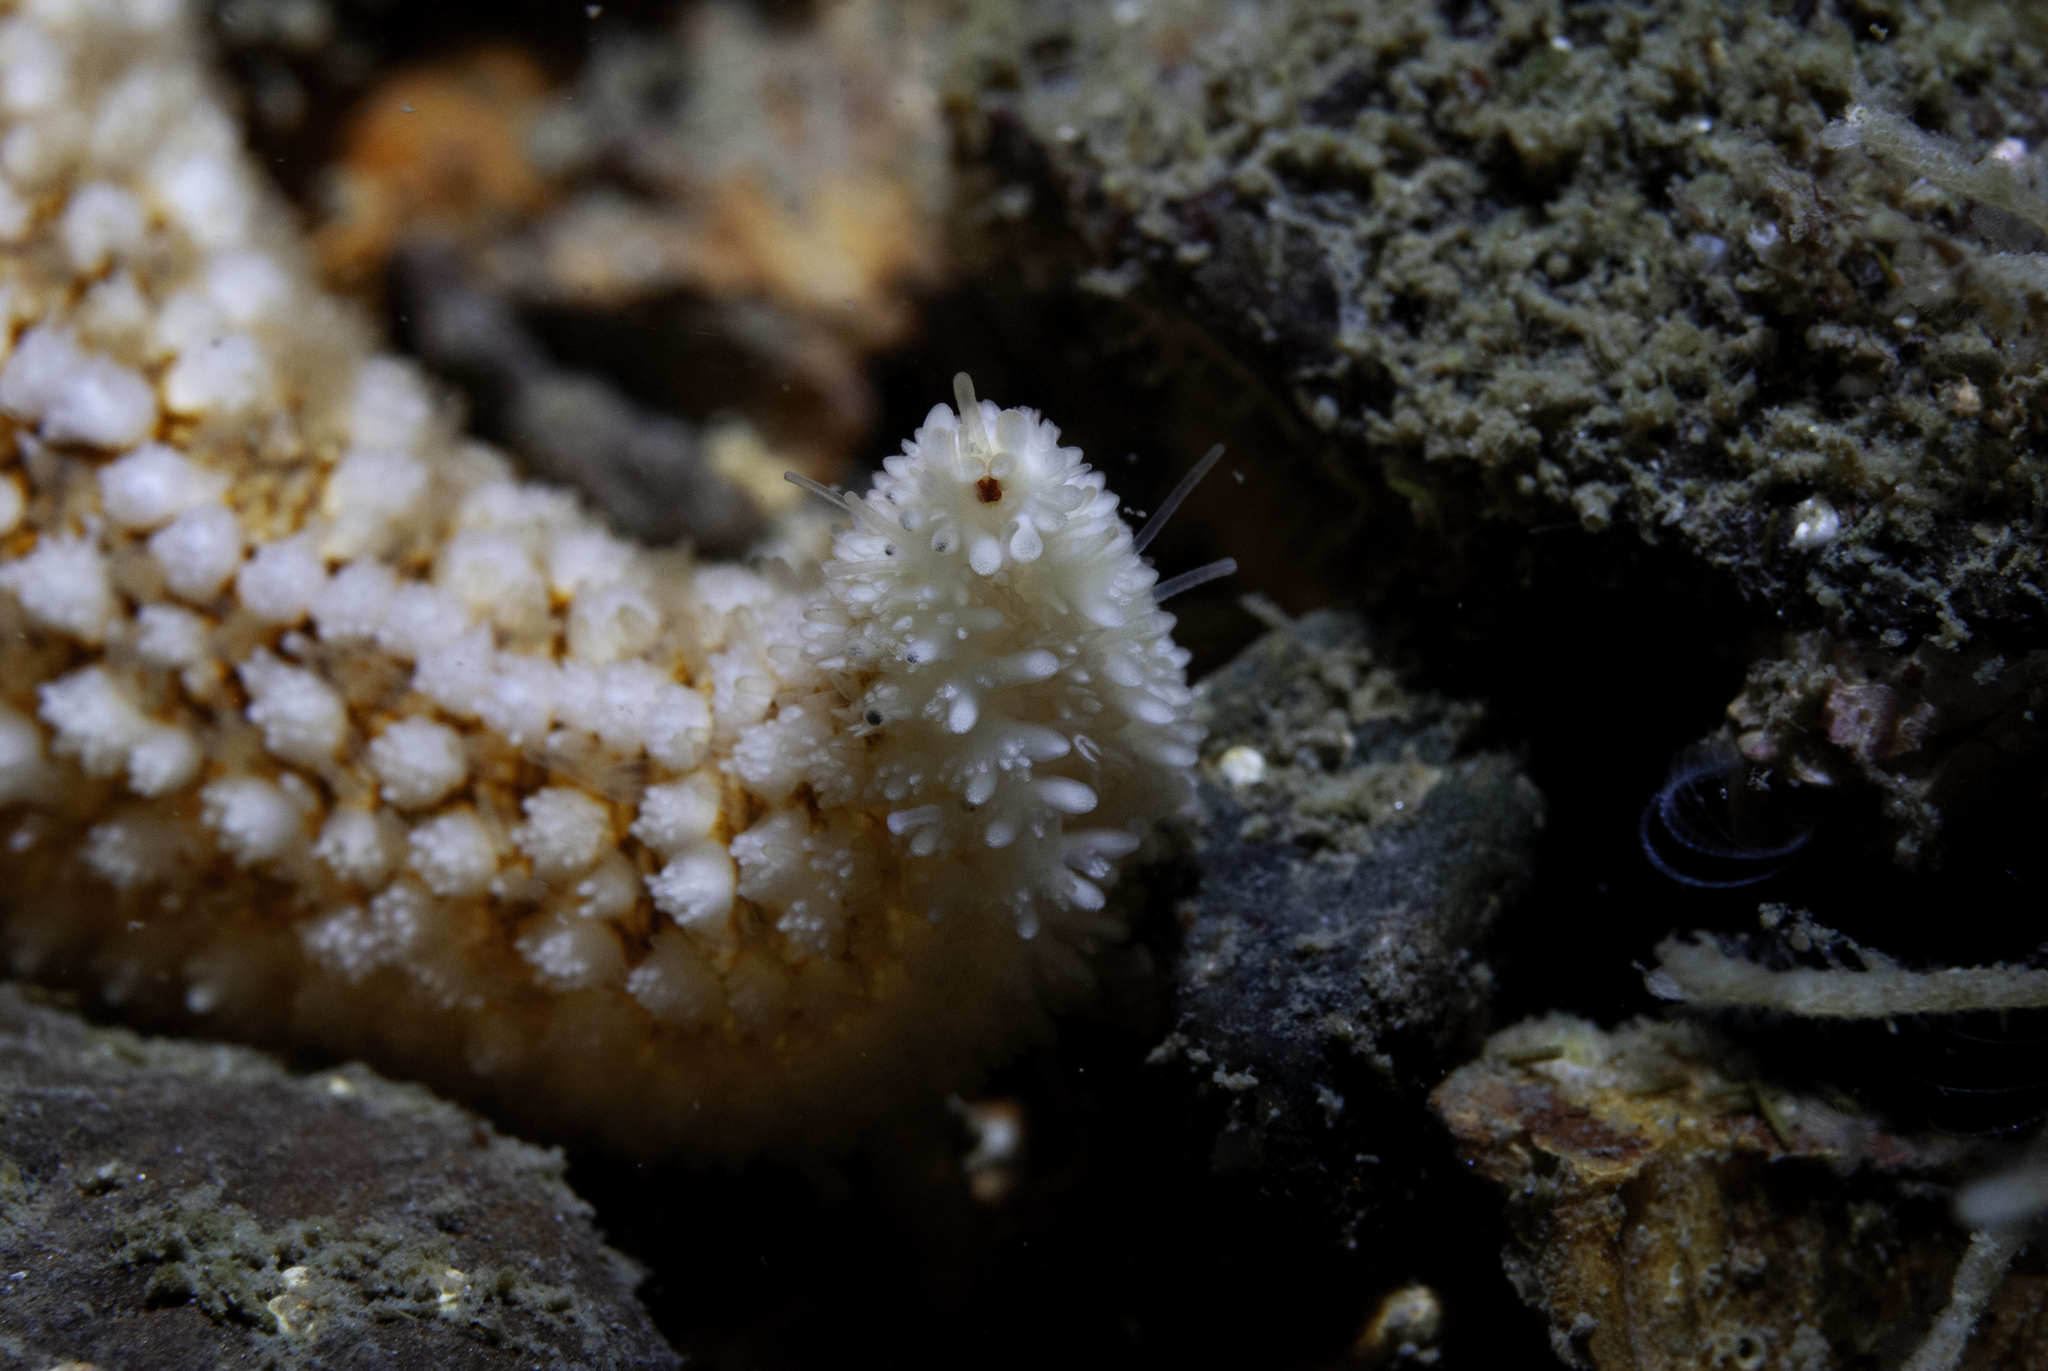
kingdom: Animalia
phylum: Echinodermata
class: Asteroidea
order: Forcipulatida
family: Asteriidae
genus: Asterias
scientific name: Asterias rubens
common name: Common starfish
